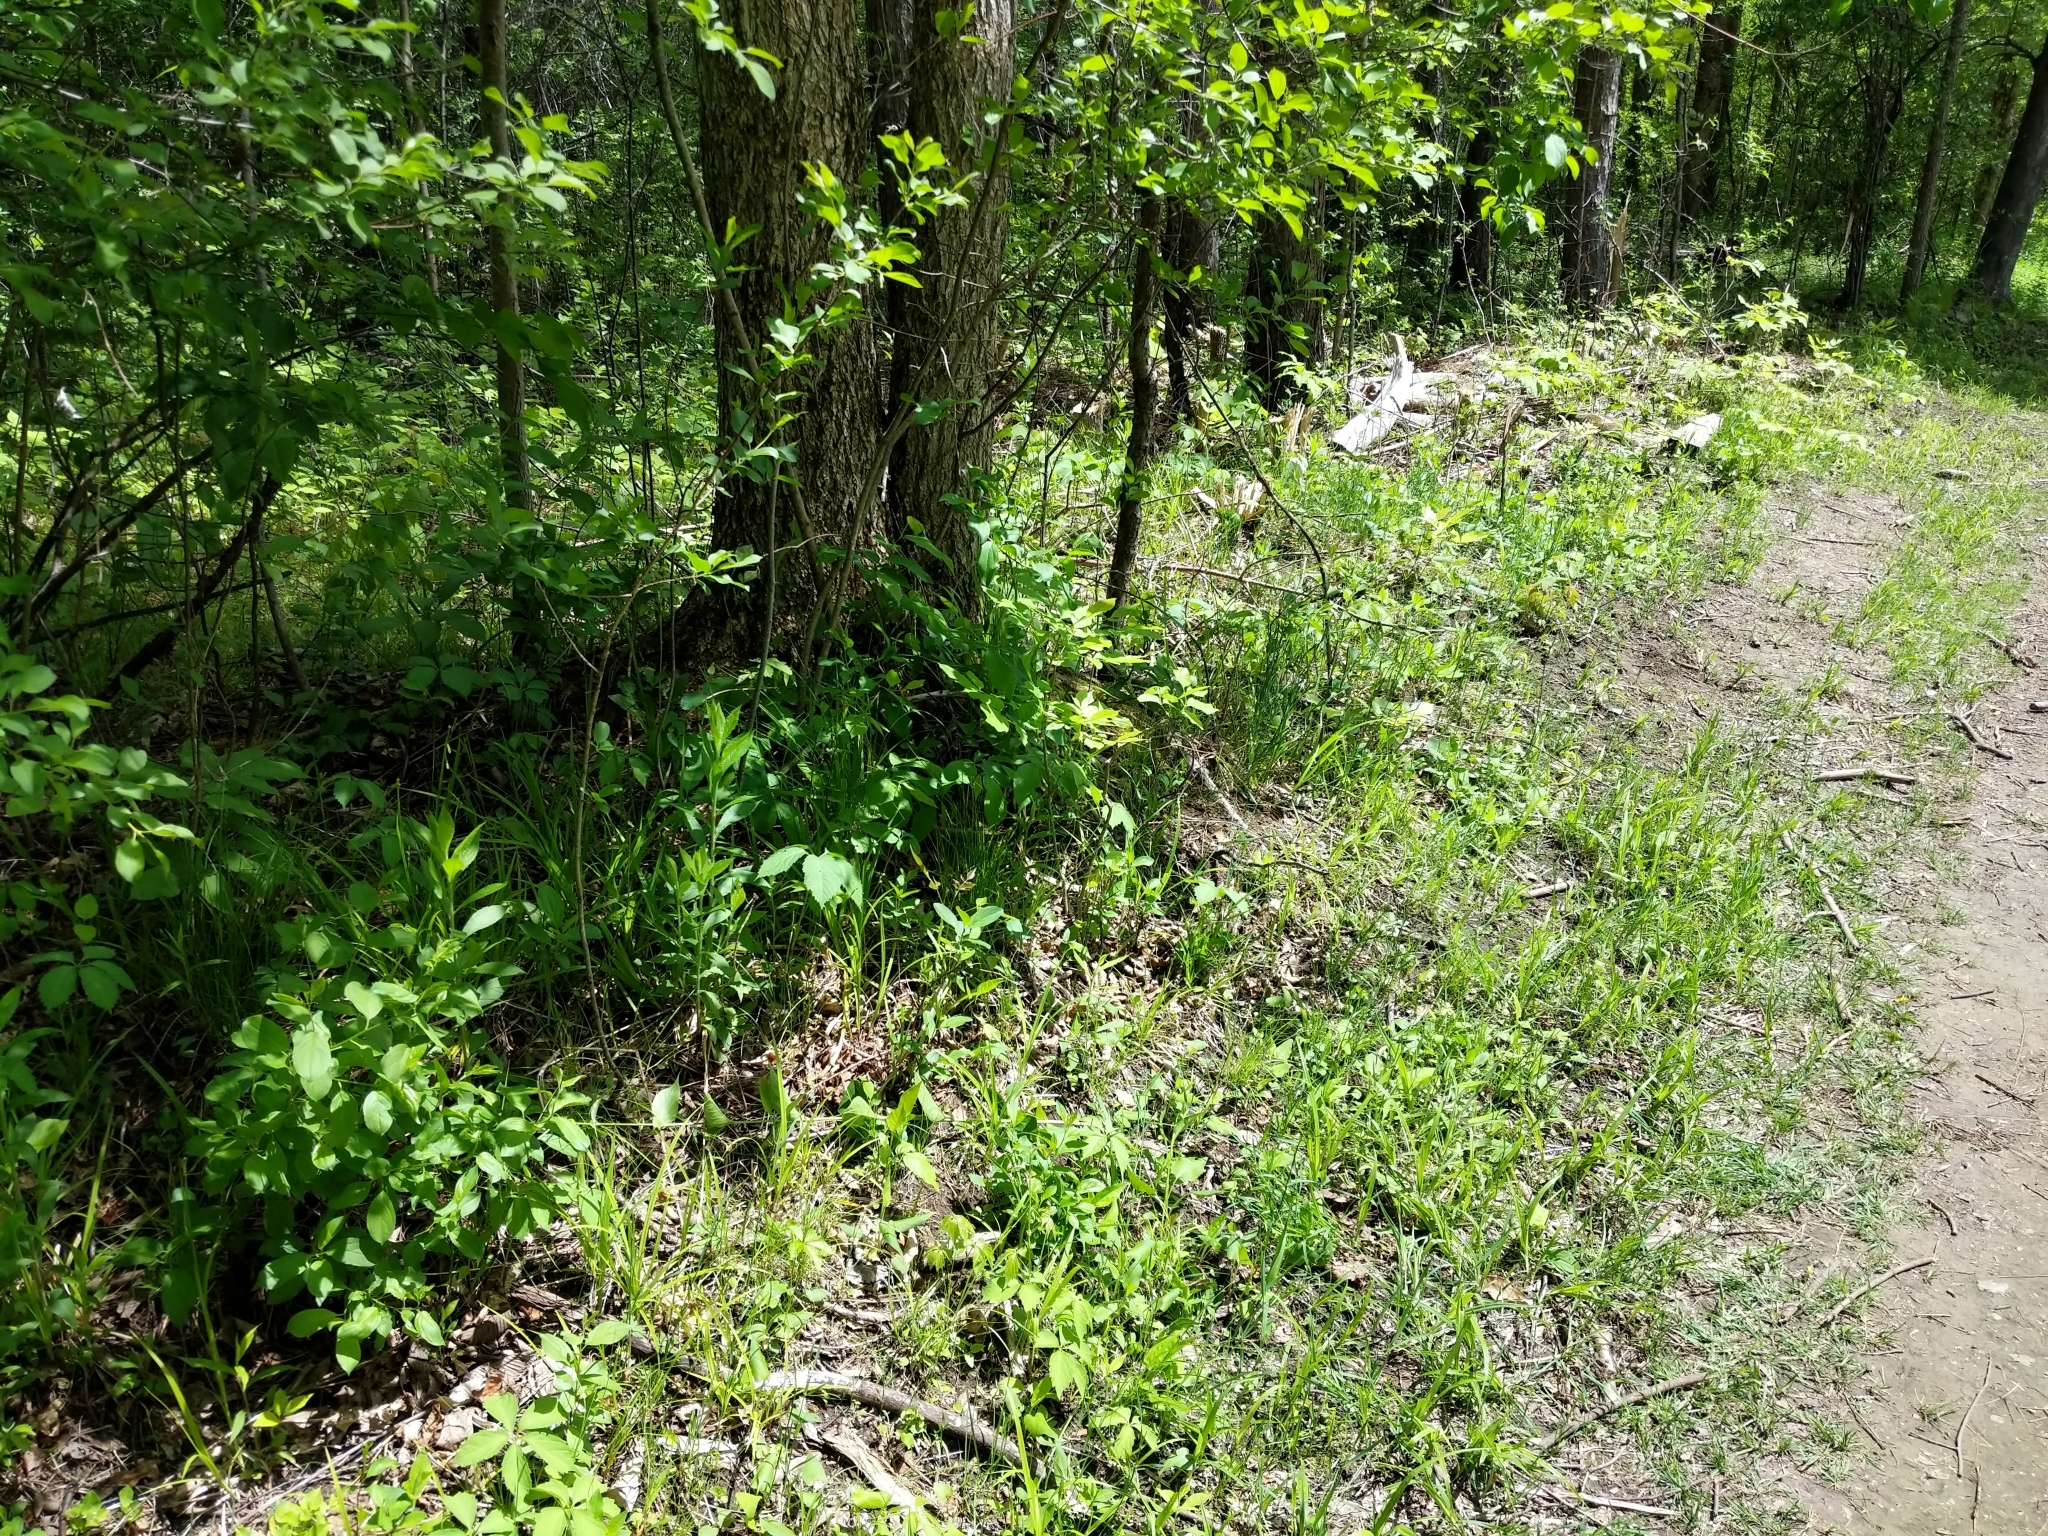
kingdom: Plantae
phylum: Tracheophyta
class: Magnoliopsida
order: Gentianales
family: Apocynaceae
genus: Vincetoxicum
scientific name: Vincetoxicum rossicum
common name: Dog-strangling vine
